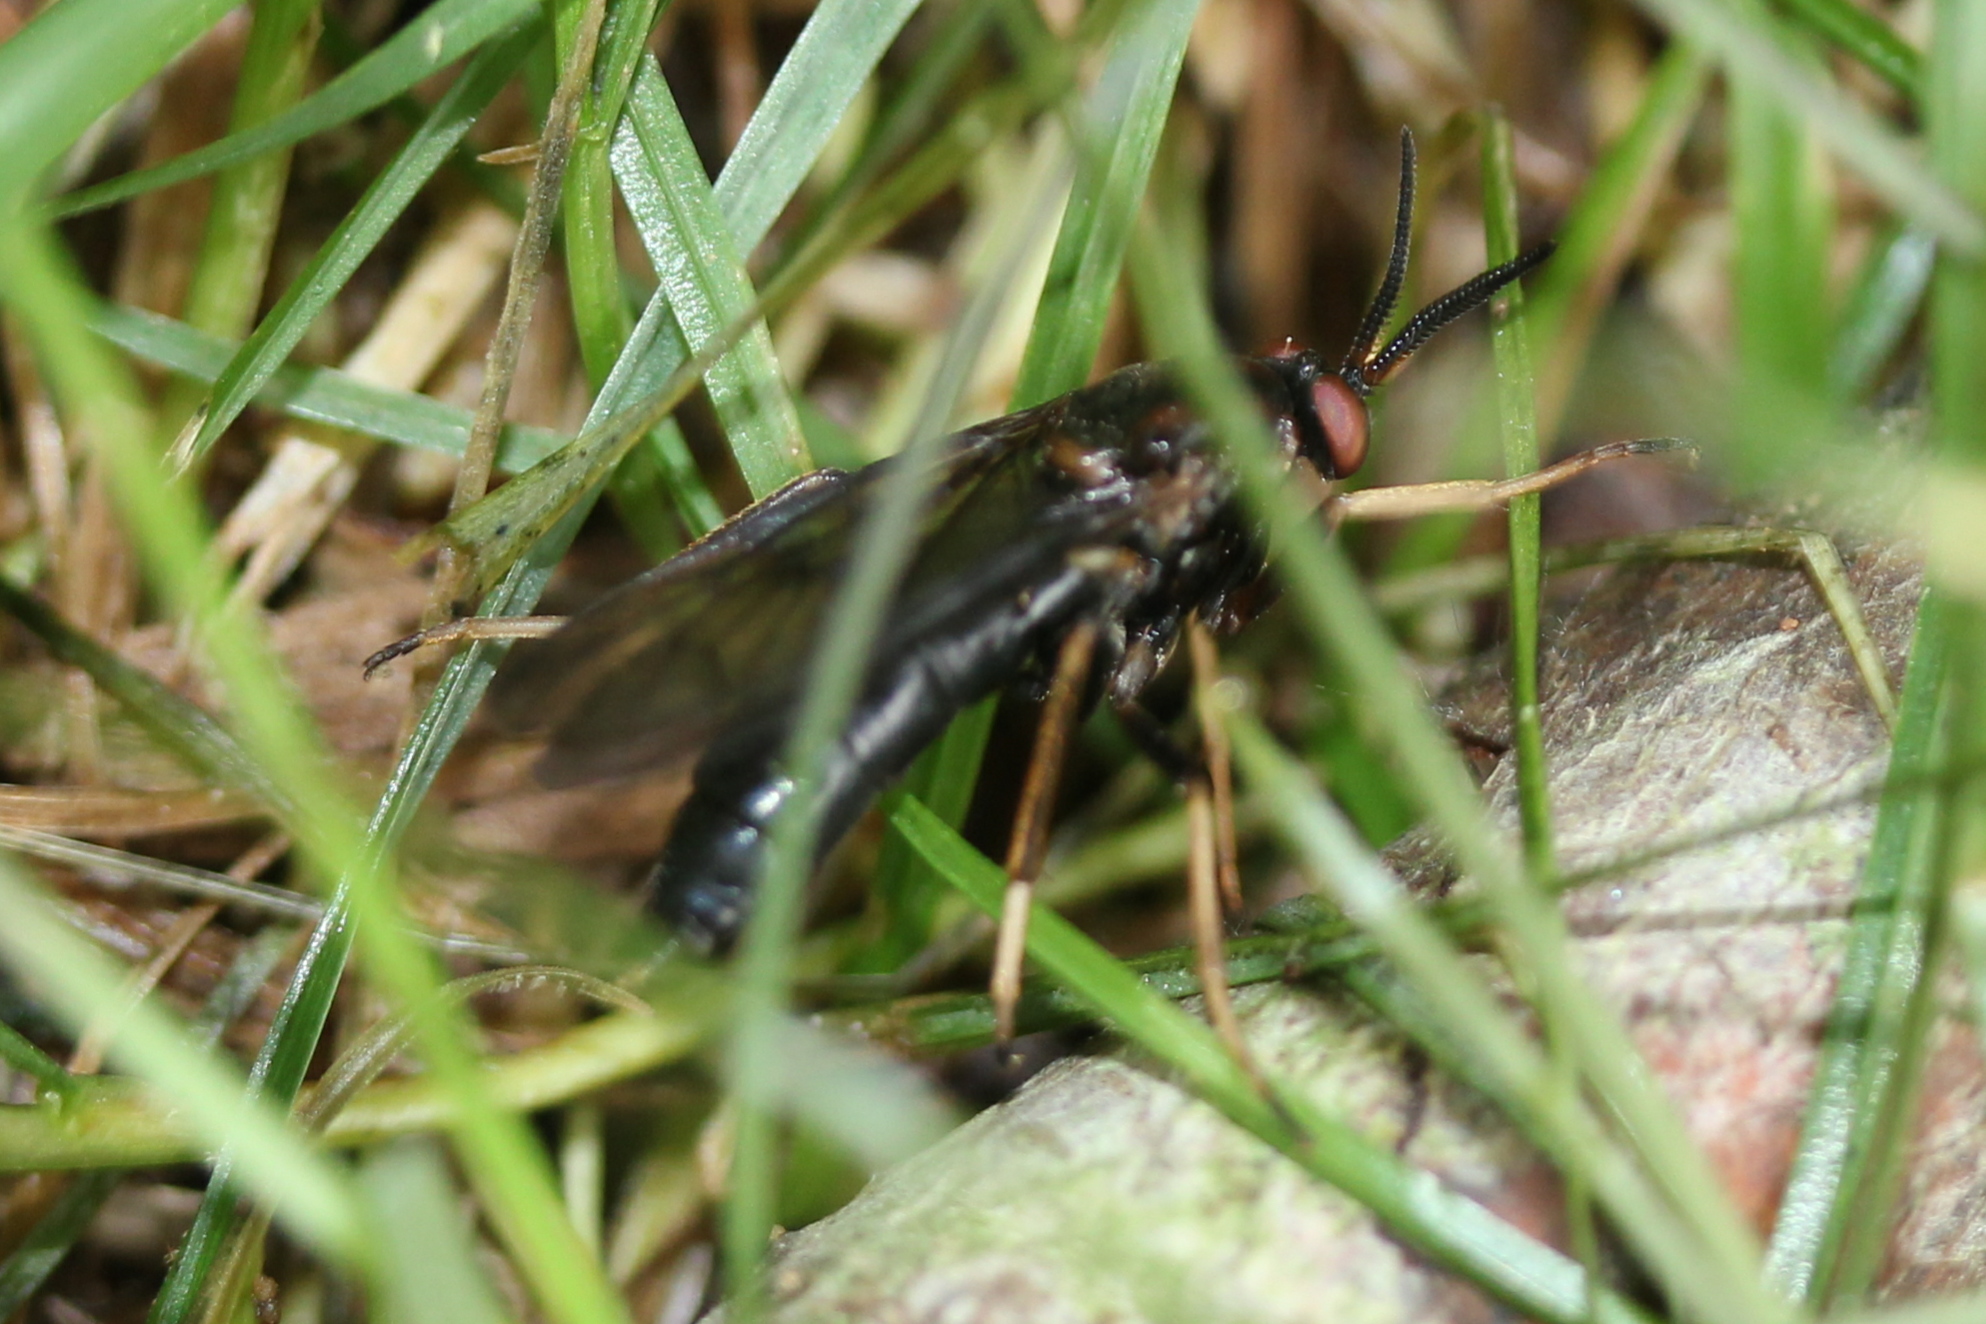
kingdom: Animalia
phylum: Arthropoda
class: Insecta
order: Diptera
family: Xylophagidae
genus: Rachicerus
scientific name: Rachicerus obscuripennis
